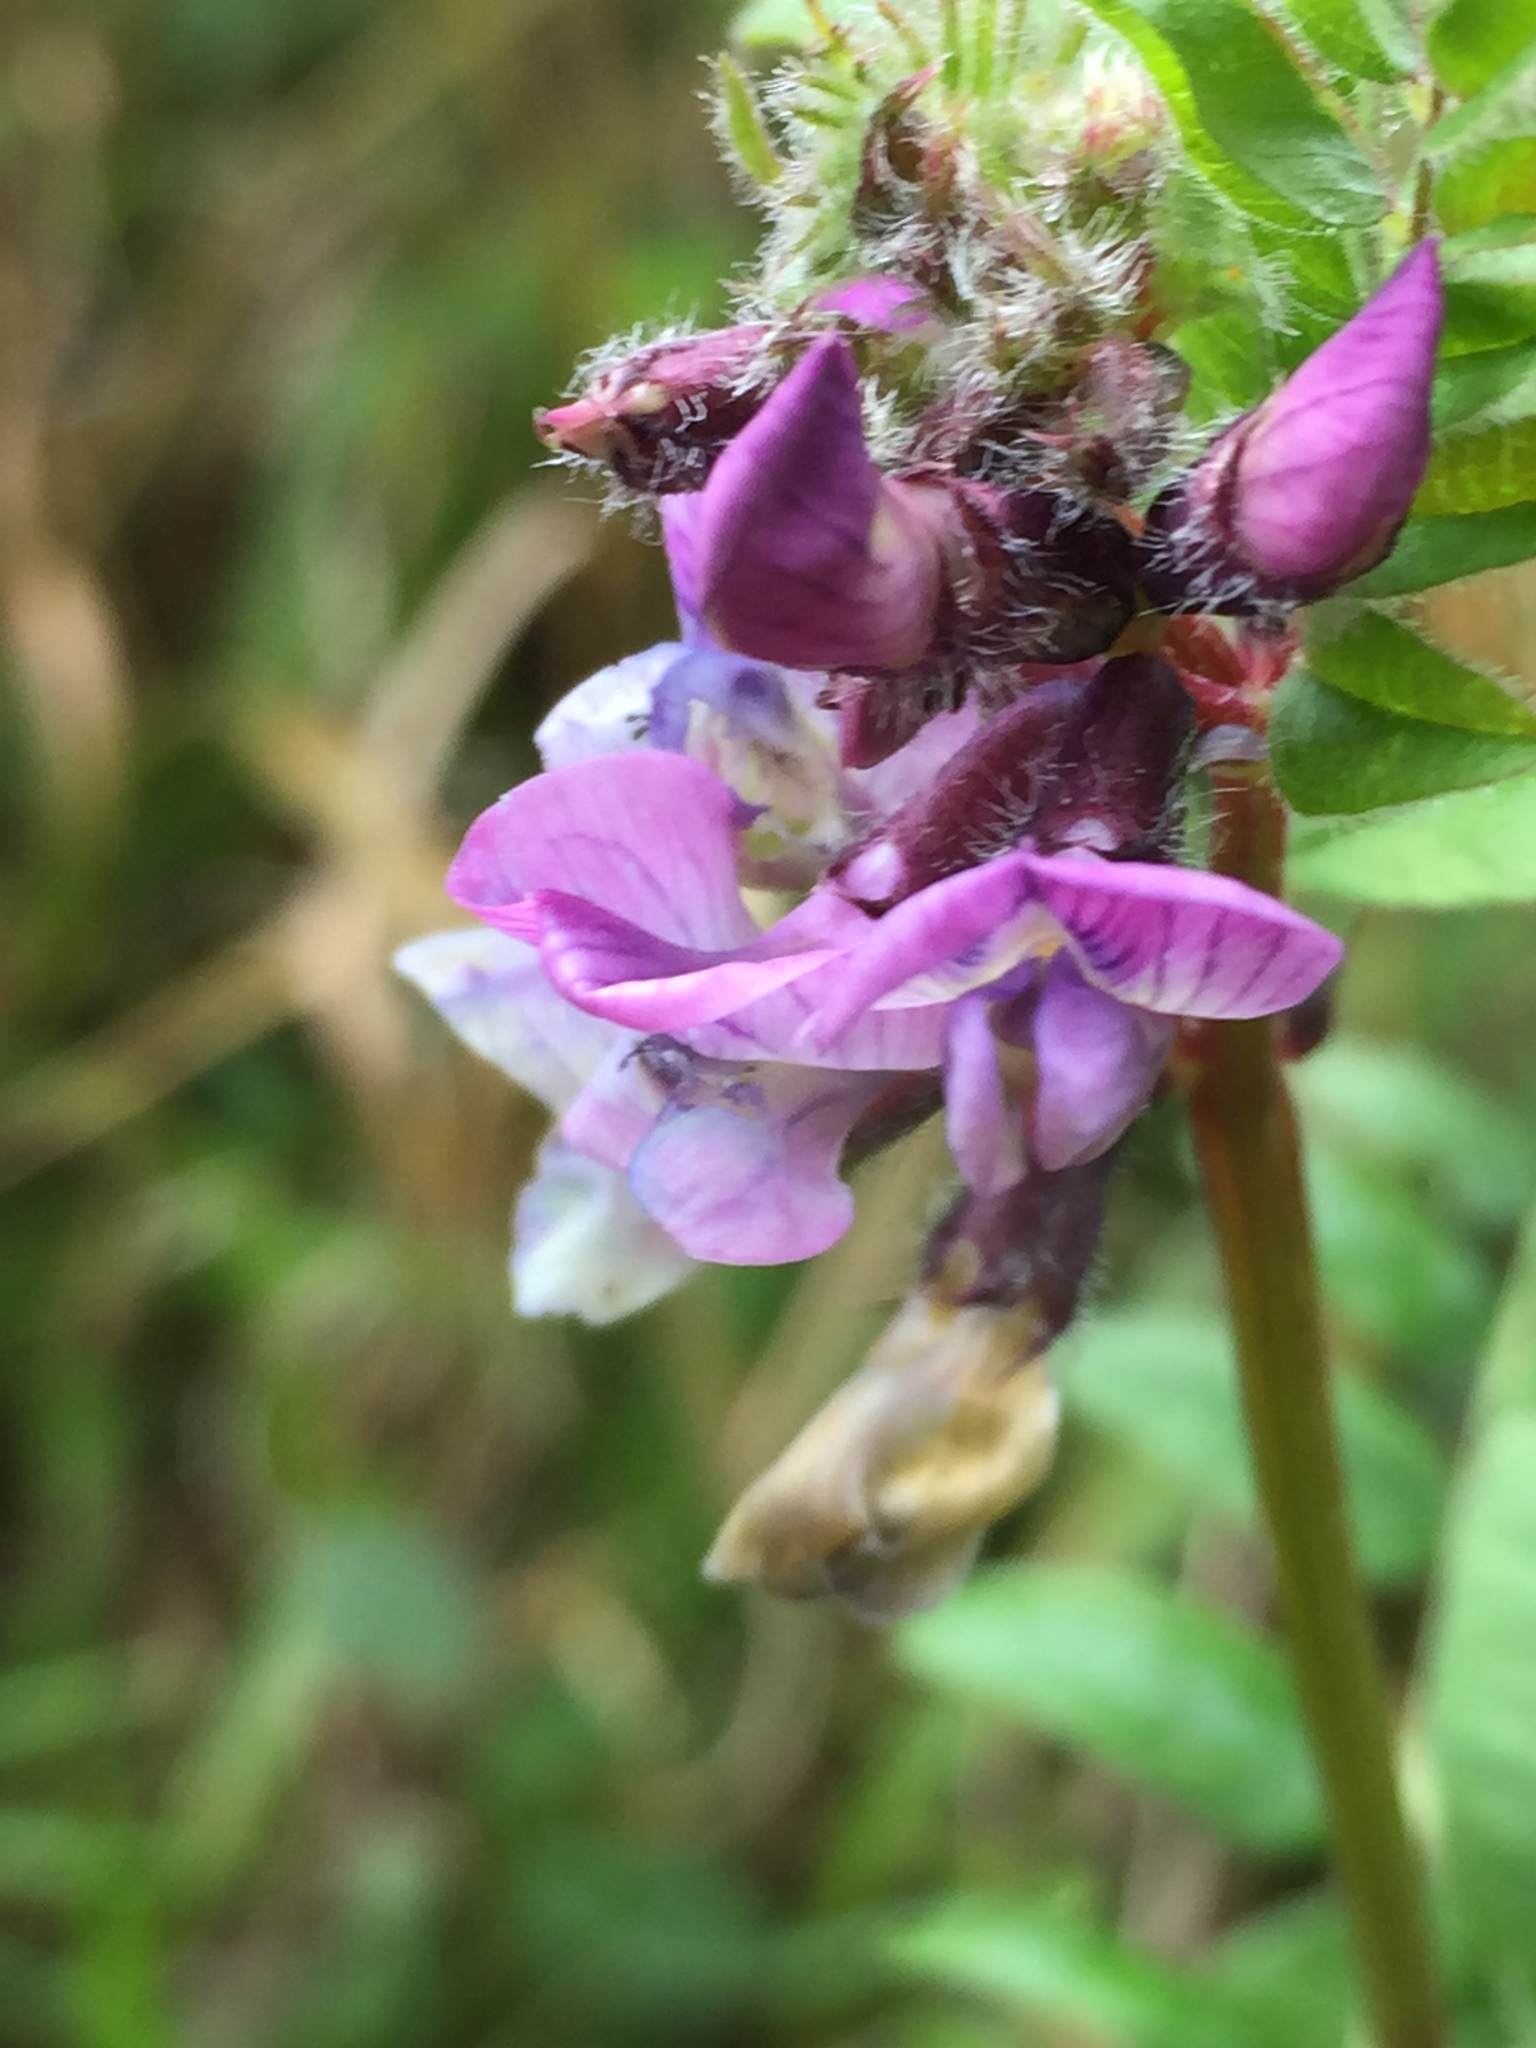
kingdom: Plantae
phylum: Tracheophyta
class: Magnoliopsida
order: Fabales
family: Fabaceae
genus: Vicia
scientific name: Vicia sepium
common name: Bush vetch
